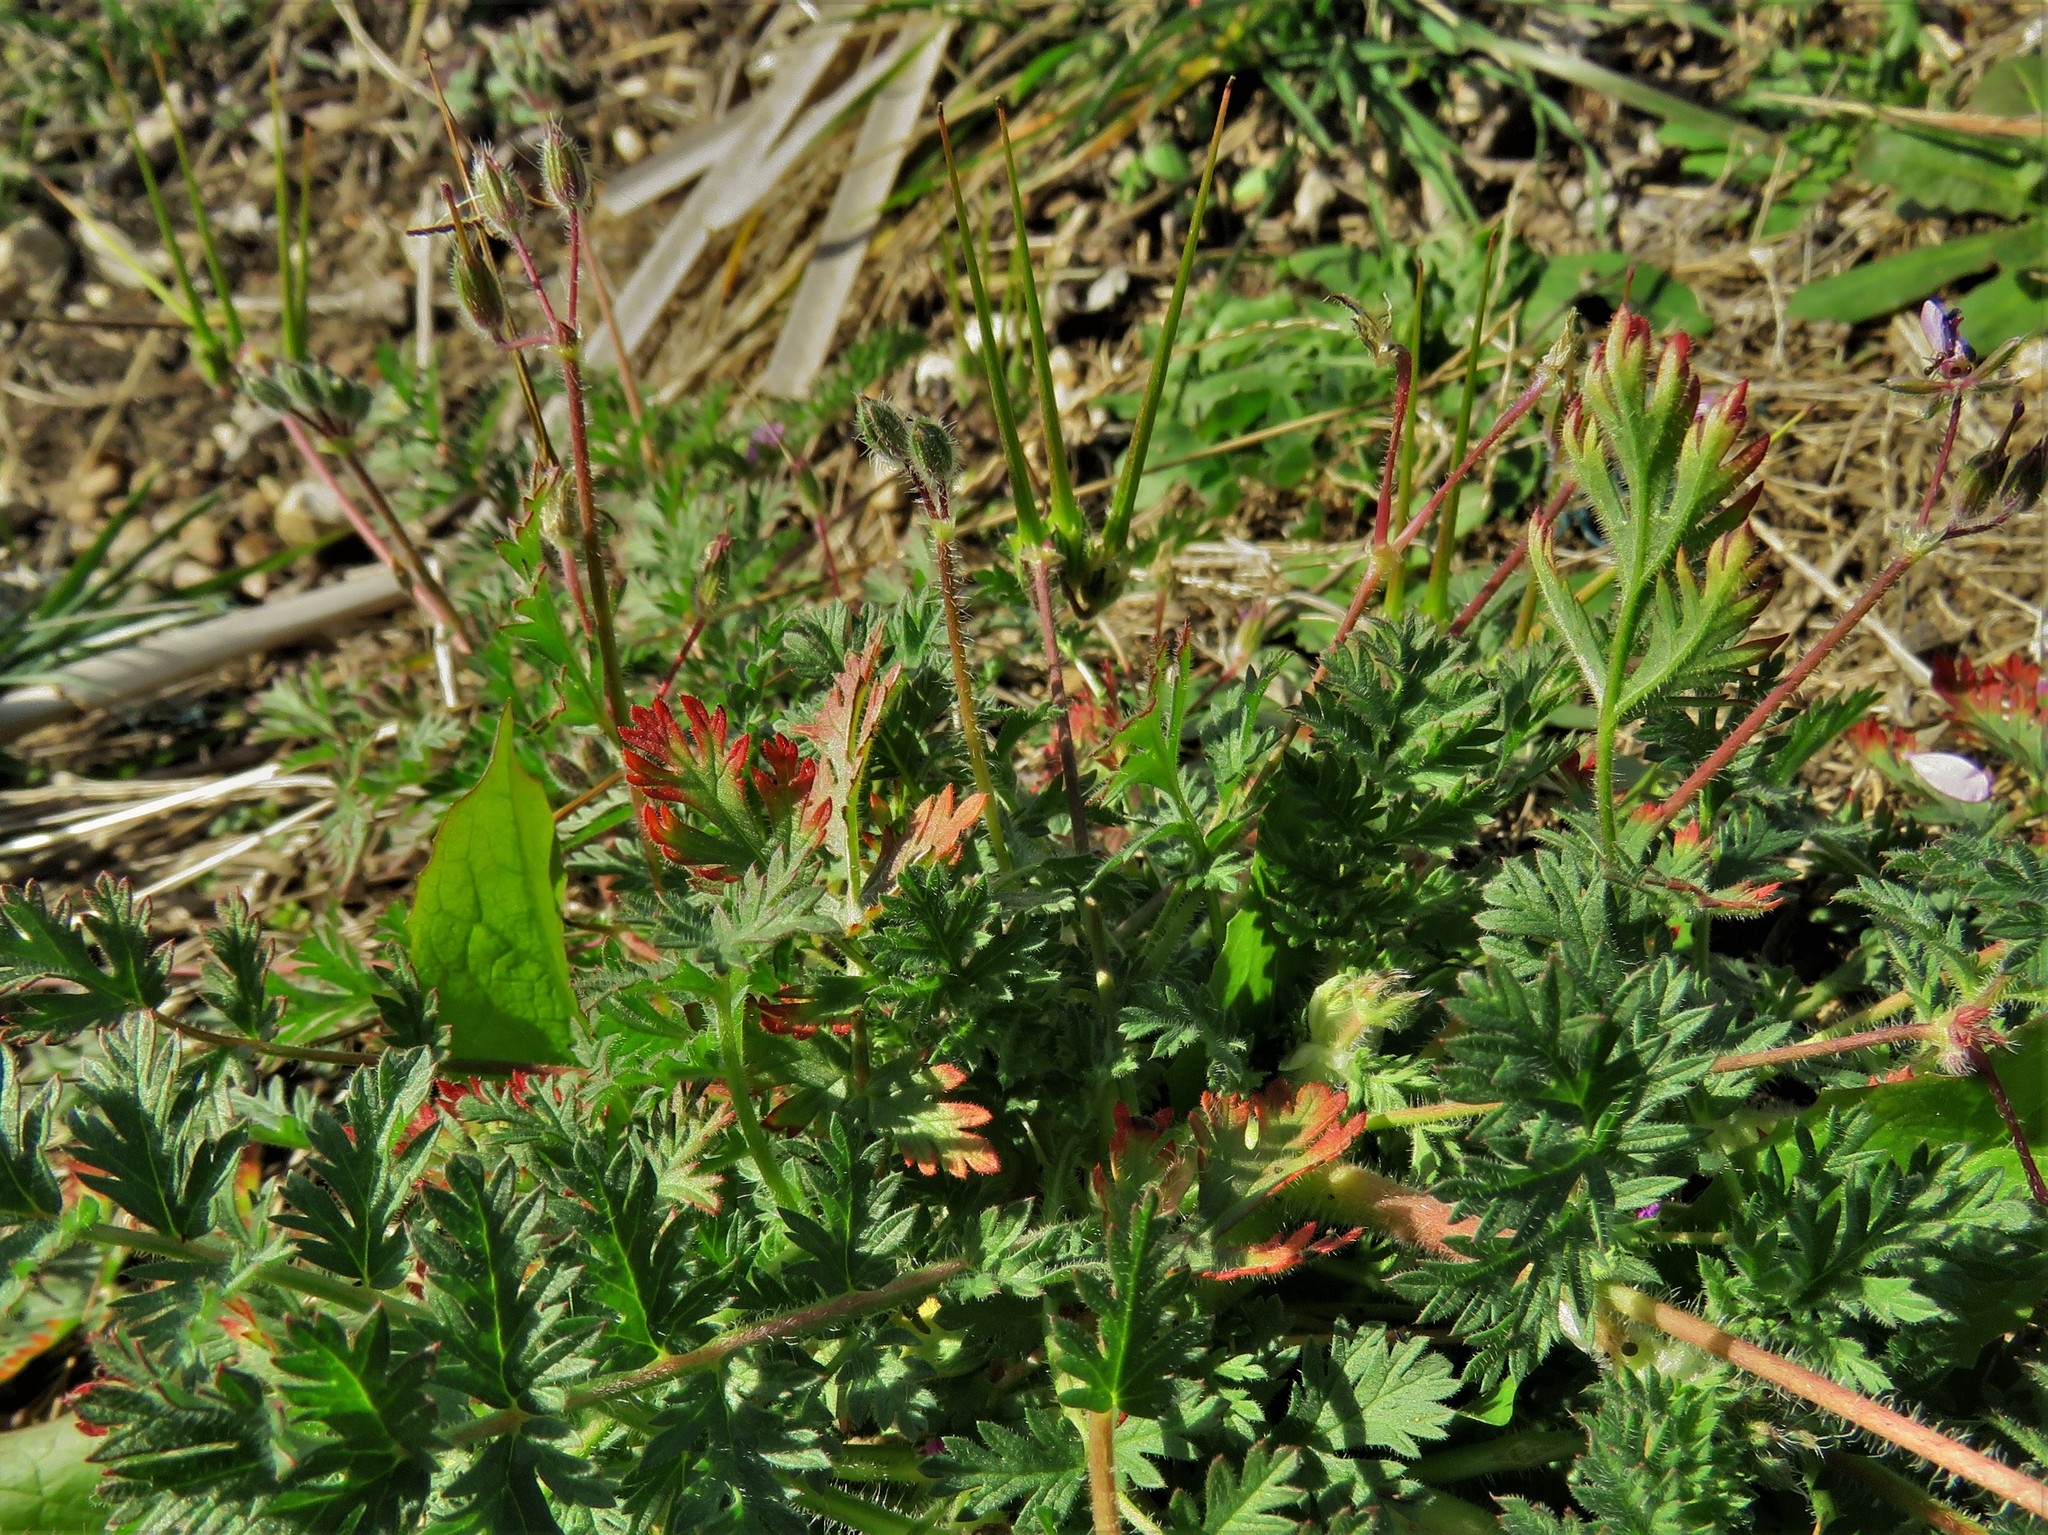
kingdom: Plantae
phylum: Tracheophyta
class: Magnoliopsida
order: Geraniales
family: Geraniaceae
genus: Erodium
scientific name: Erodium cicutarium
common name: Common stork's-bill
